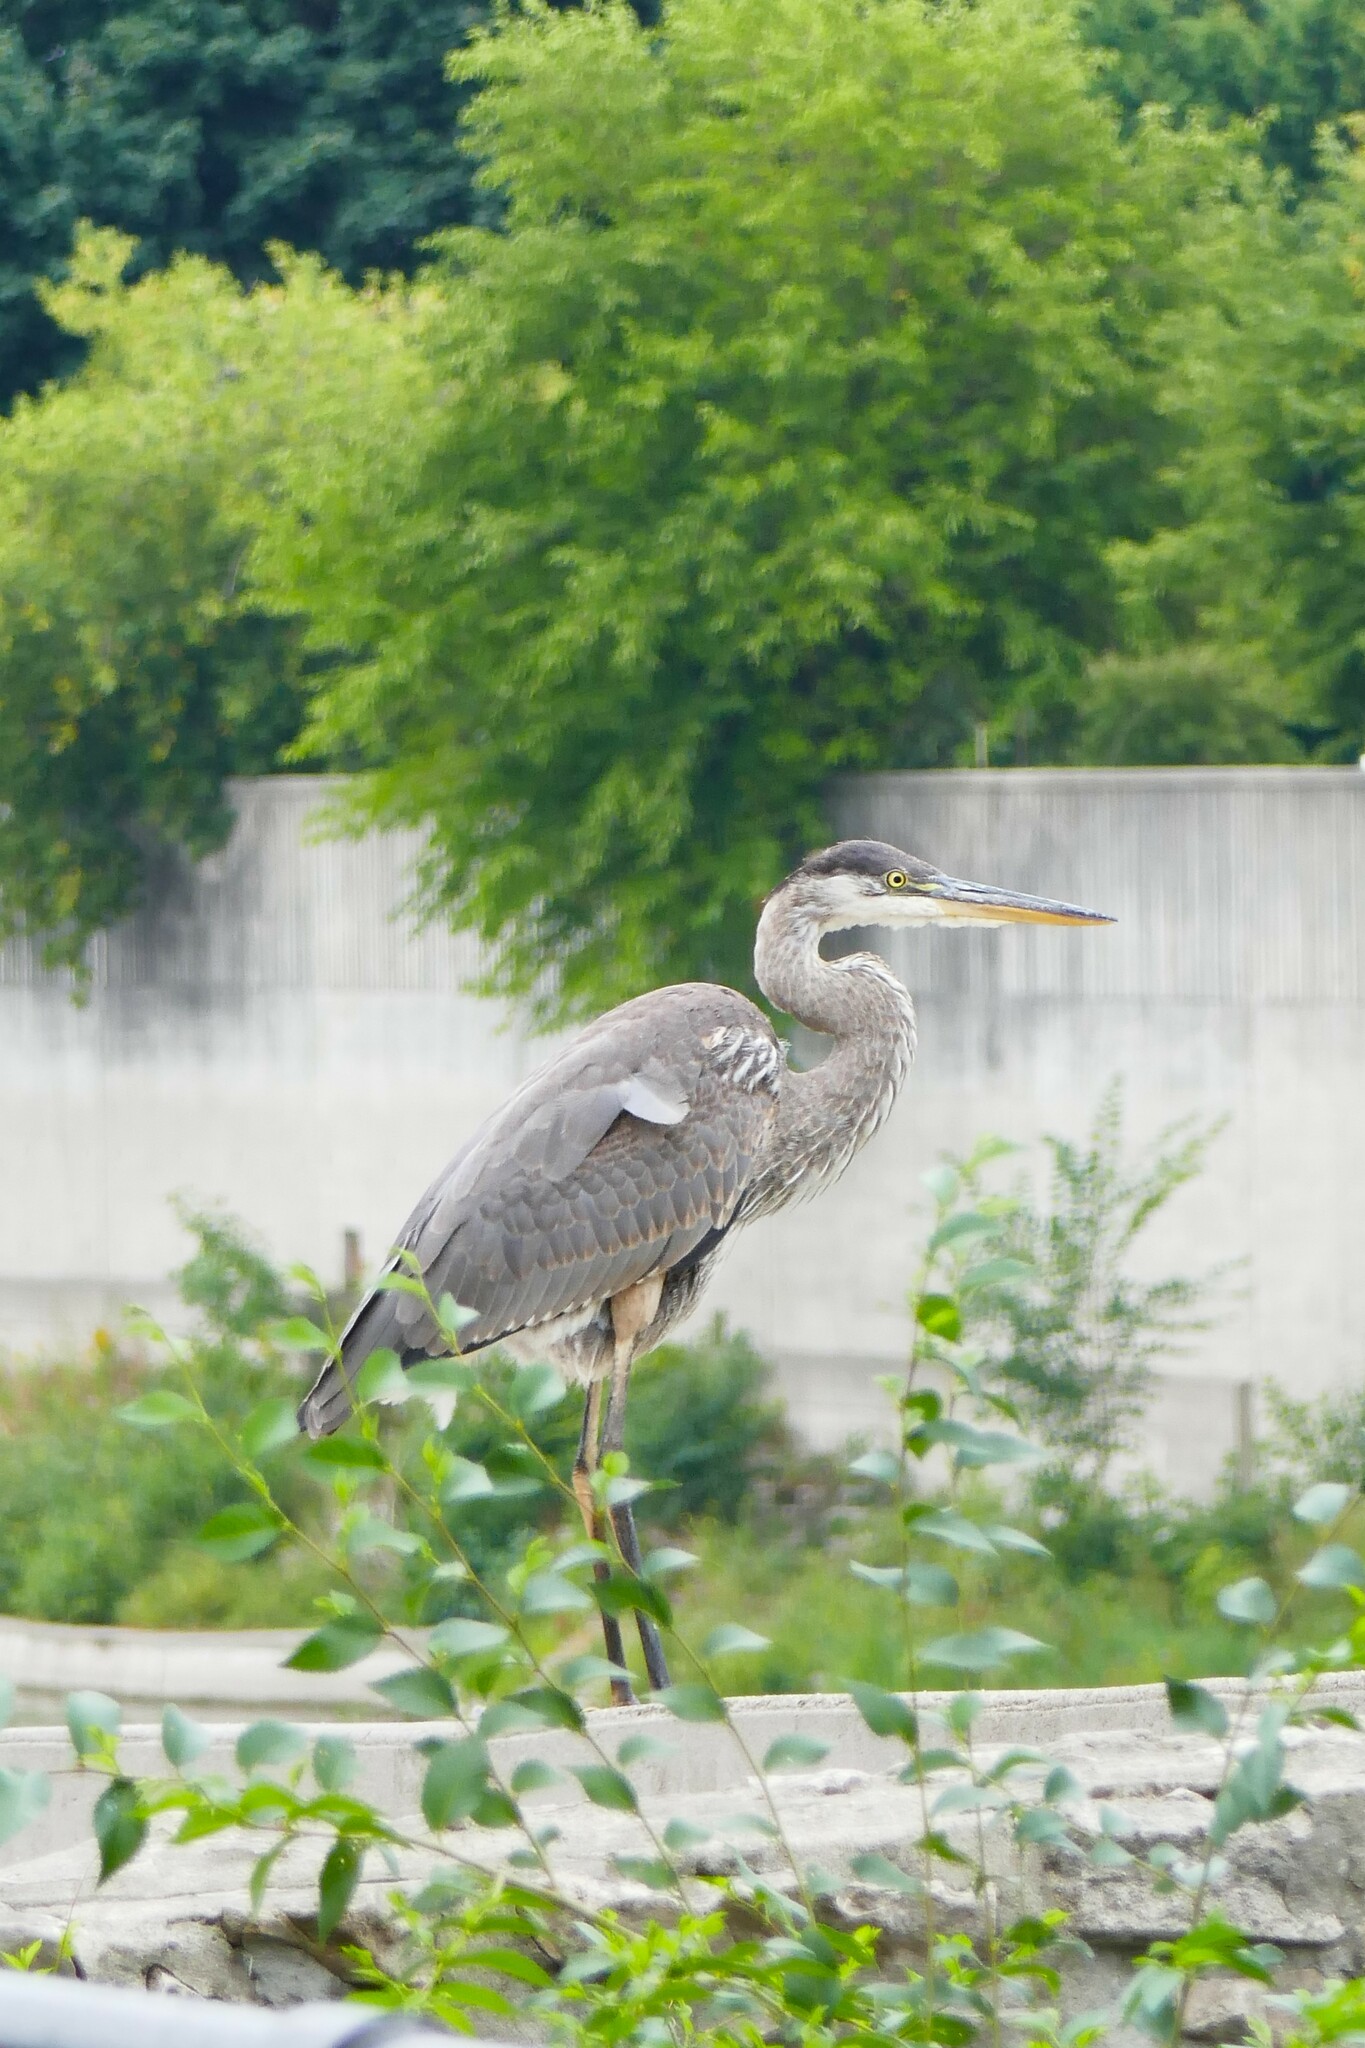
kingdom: Animalia
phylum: Chordata
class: Aves
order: Pelecaniformes
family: Ardeidae
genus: Ardea
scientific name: Ardea herodias
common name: Great blue heron
